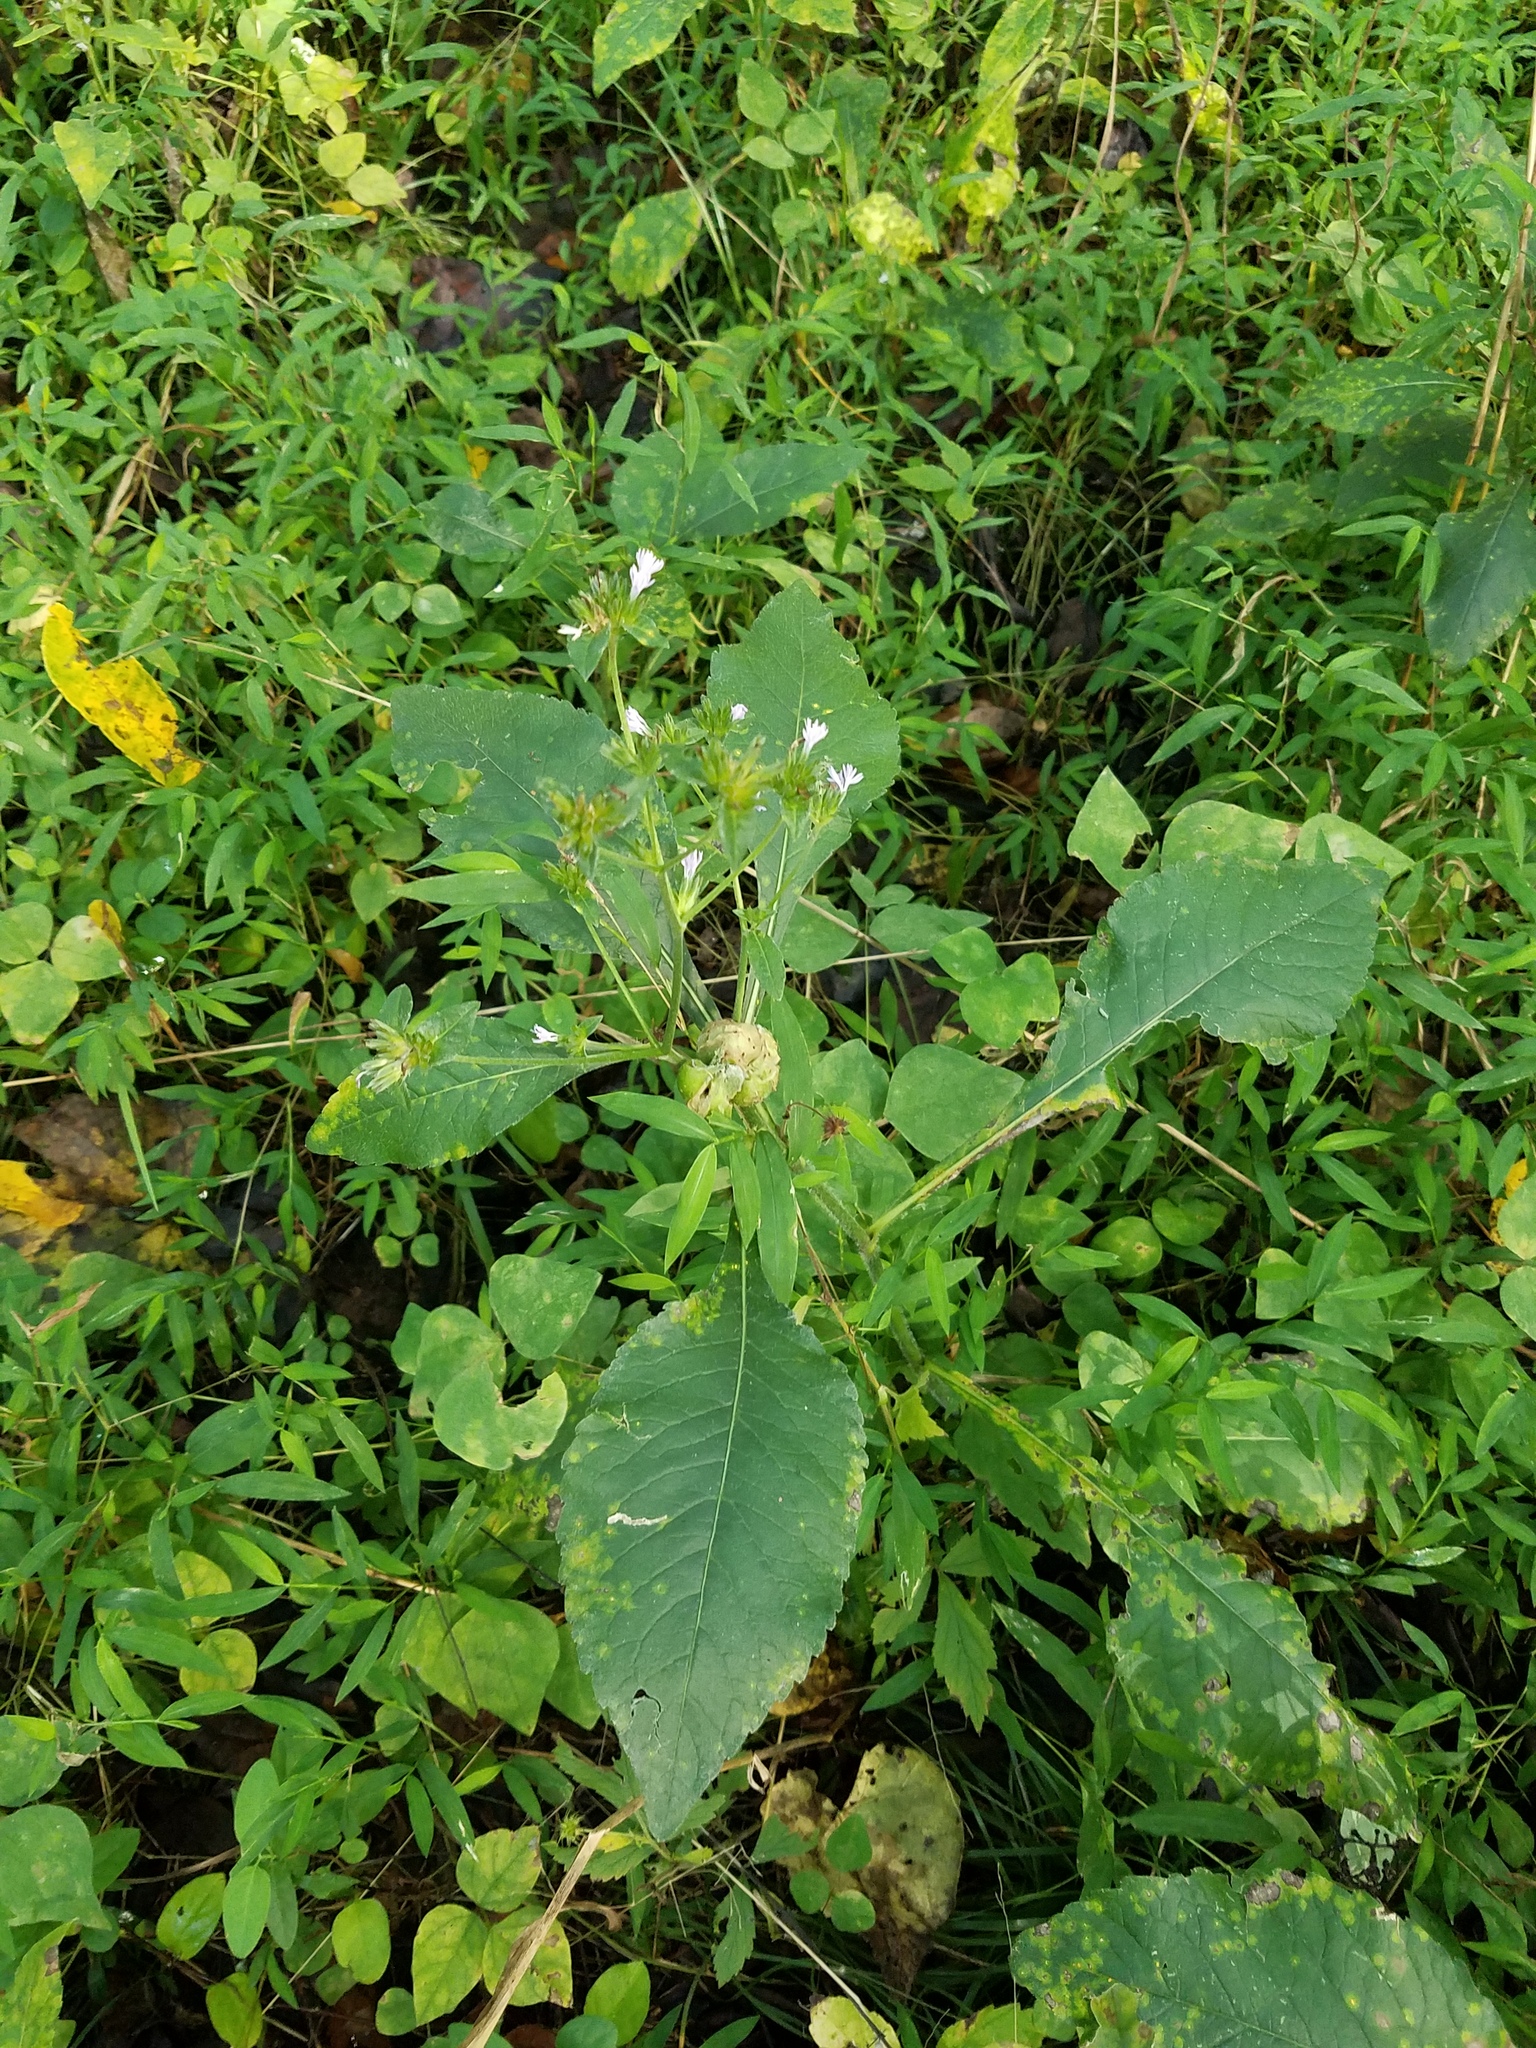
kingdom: Plantae
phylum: Tracheophyta
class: Magnoliopsida
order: Asterales
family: Asteraceae
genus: Elephantopus
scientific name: Elephantopus carolinianus
